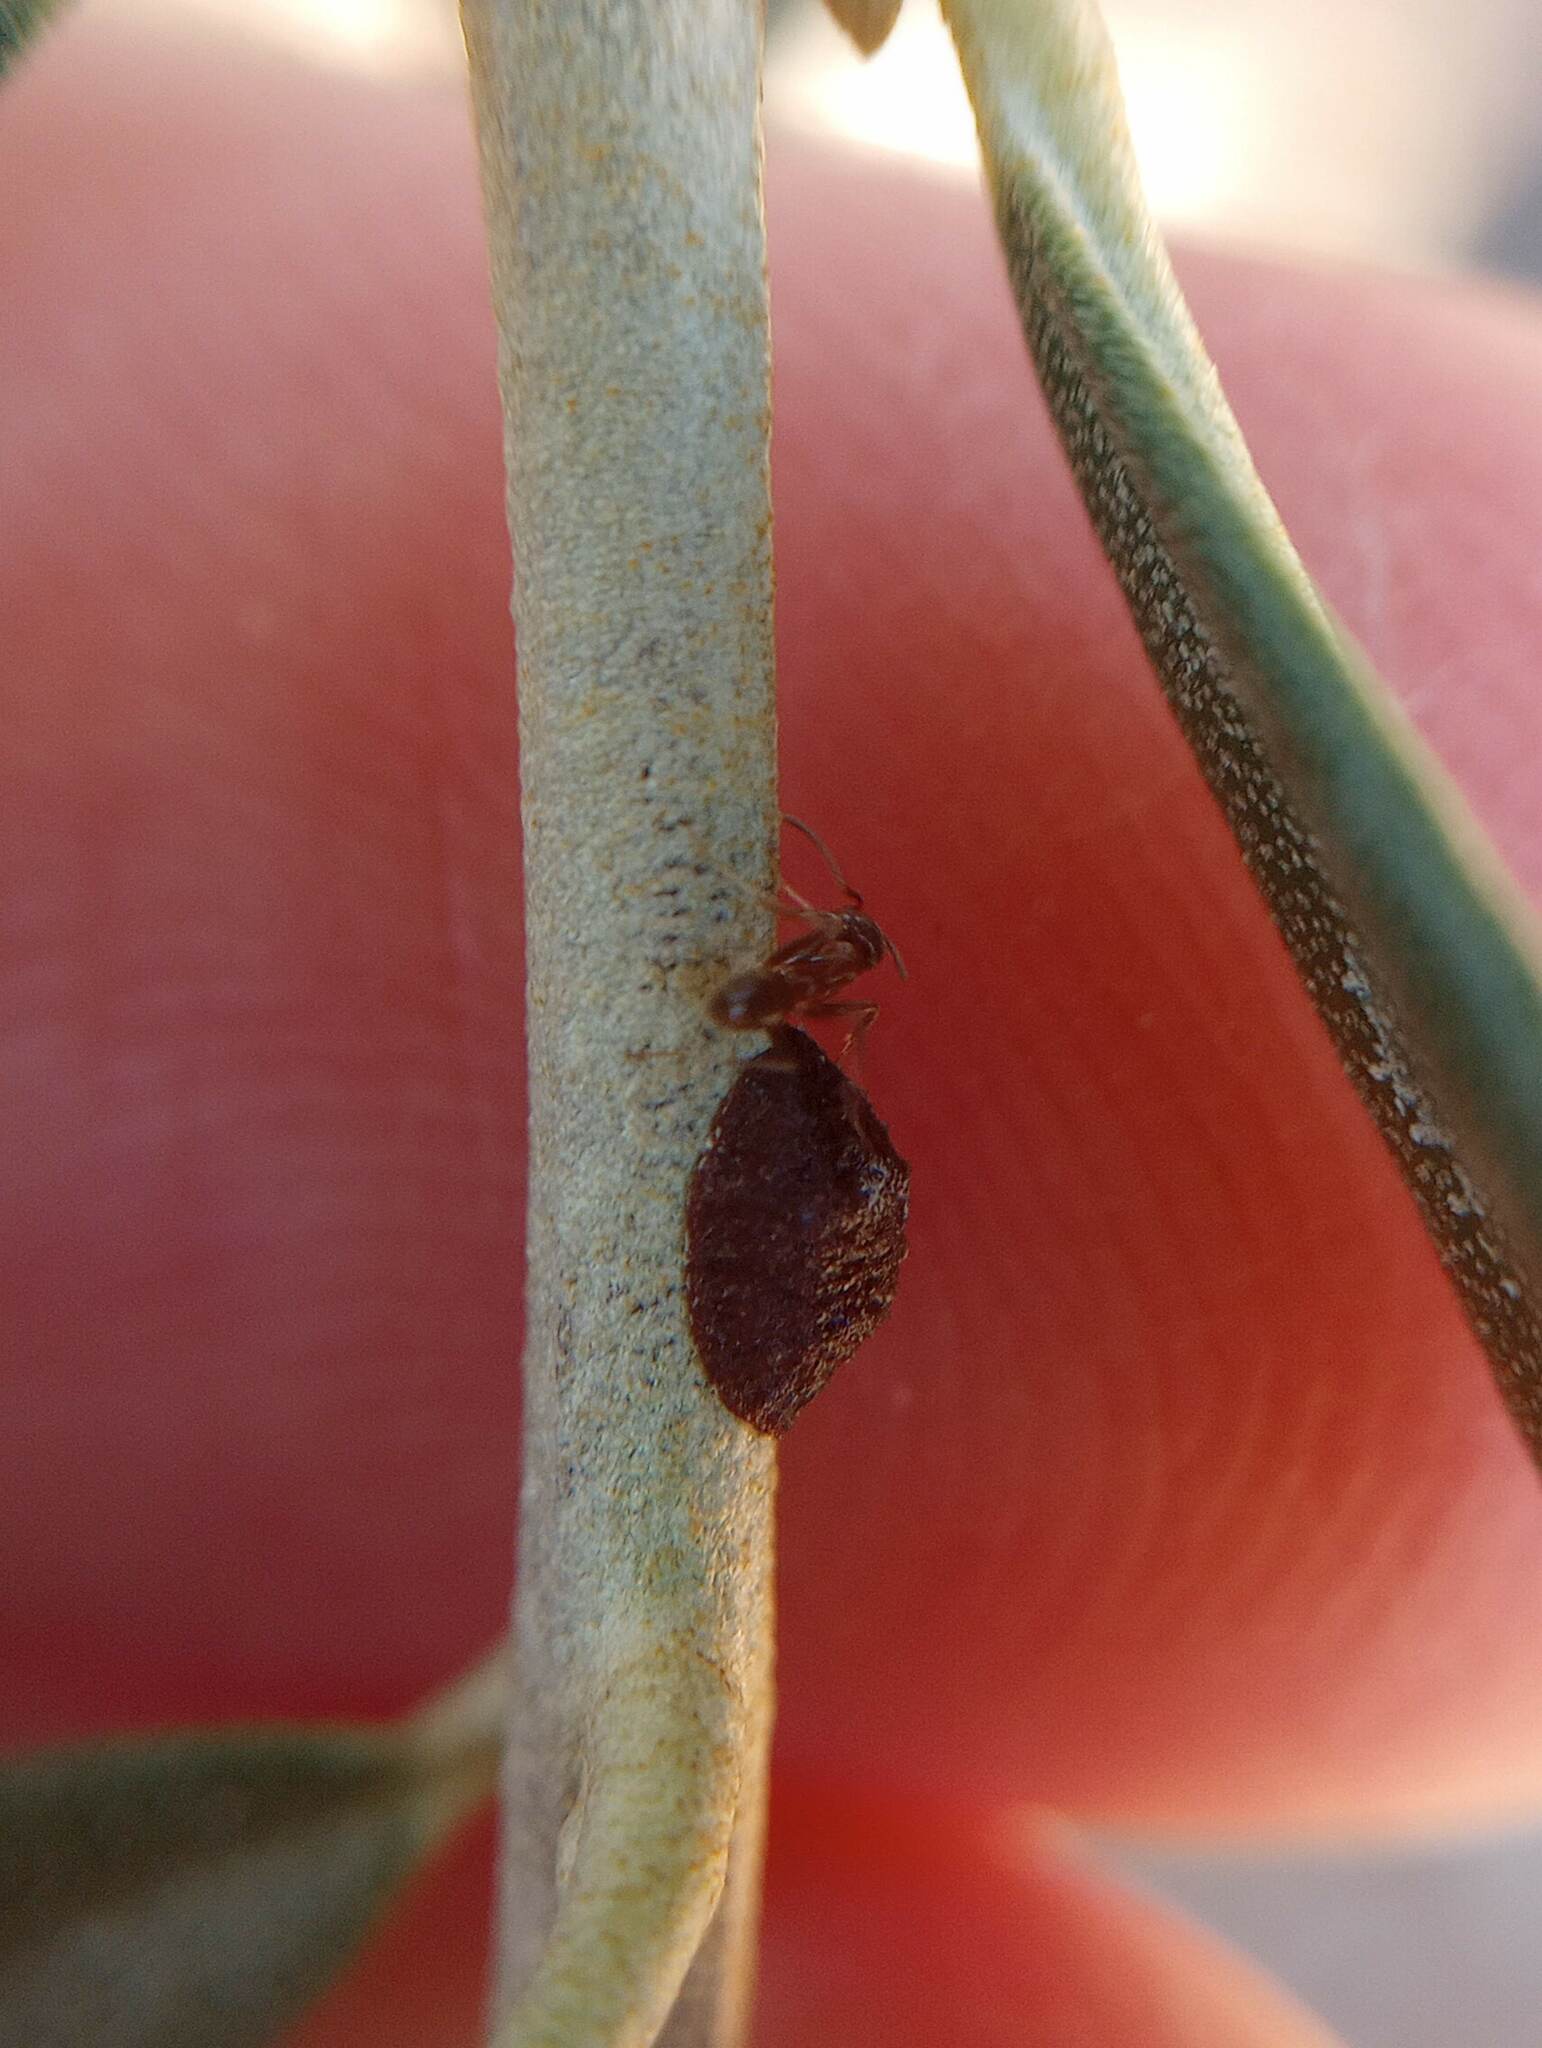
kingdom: Animalia
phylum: Arthropoda
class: Insecta
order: Hymenoptera
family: Formicidae
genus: Linepithema
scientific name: Linepithema humile
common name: Argentine ant
